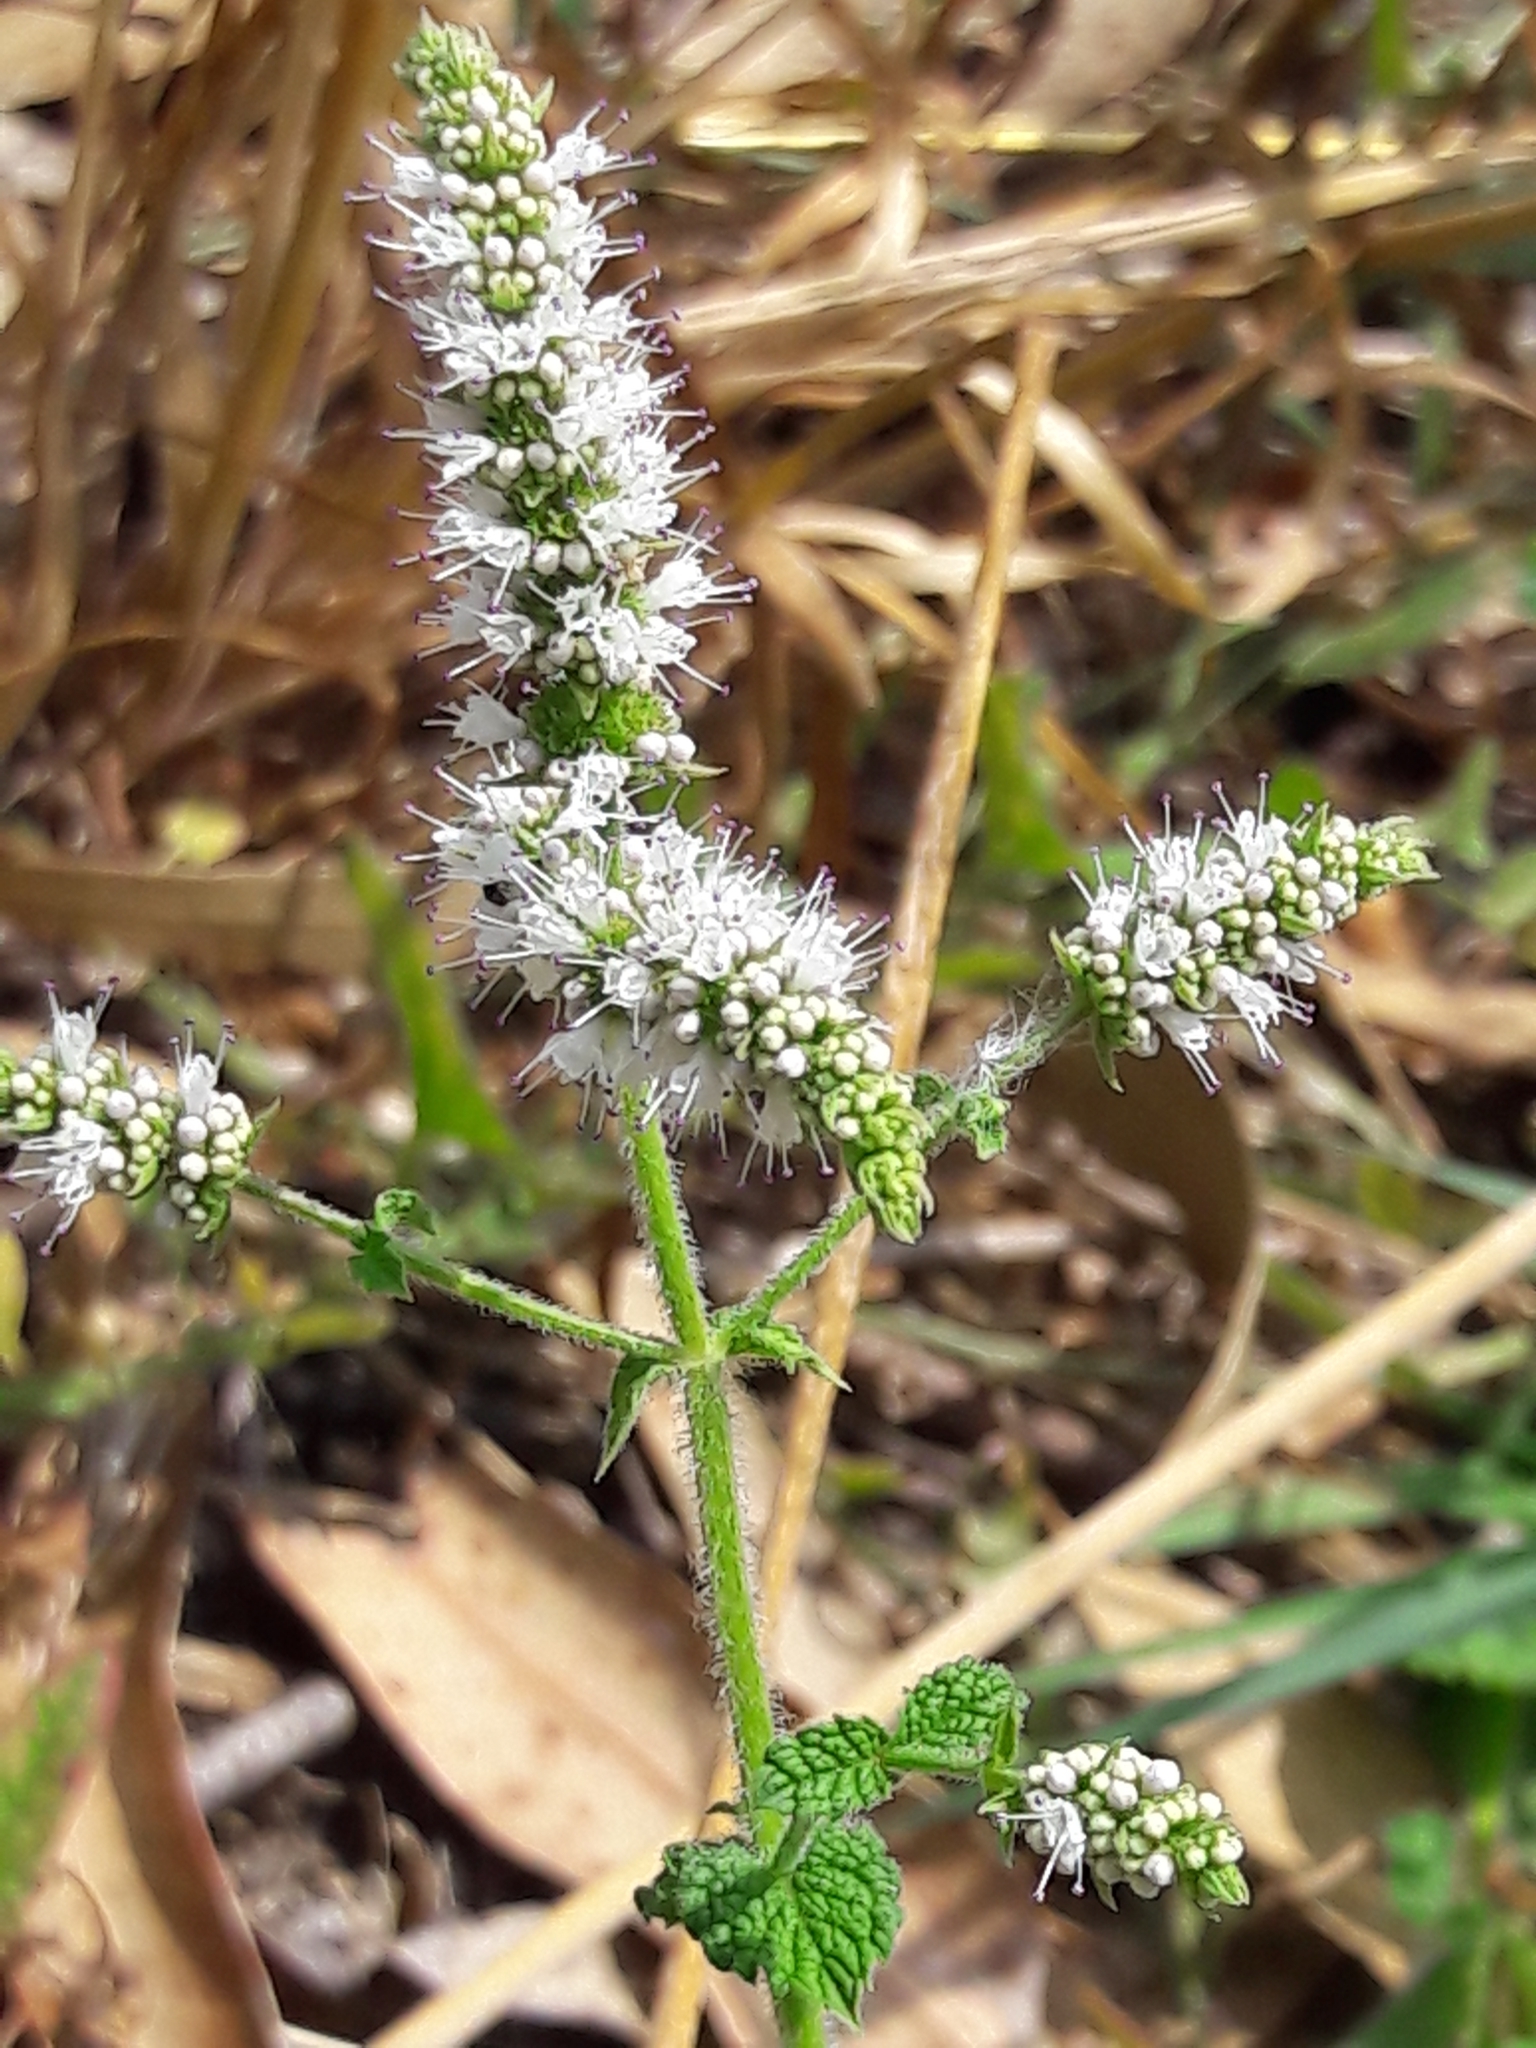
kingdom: Plantae
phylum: Tracheophyta
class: Magnoliopsida
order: Lamiales
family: Lamiaceae
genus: Mentha
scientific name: Mentha suaveolens
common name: Apple mint
